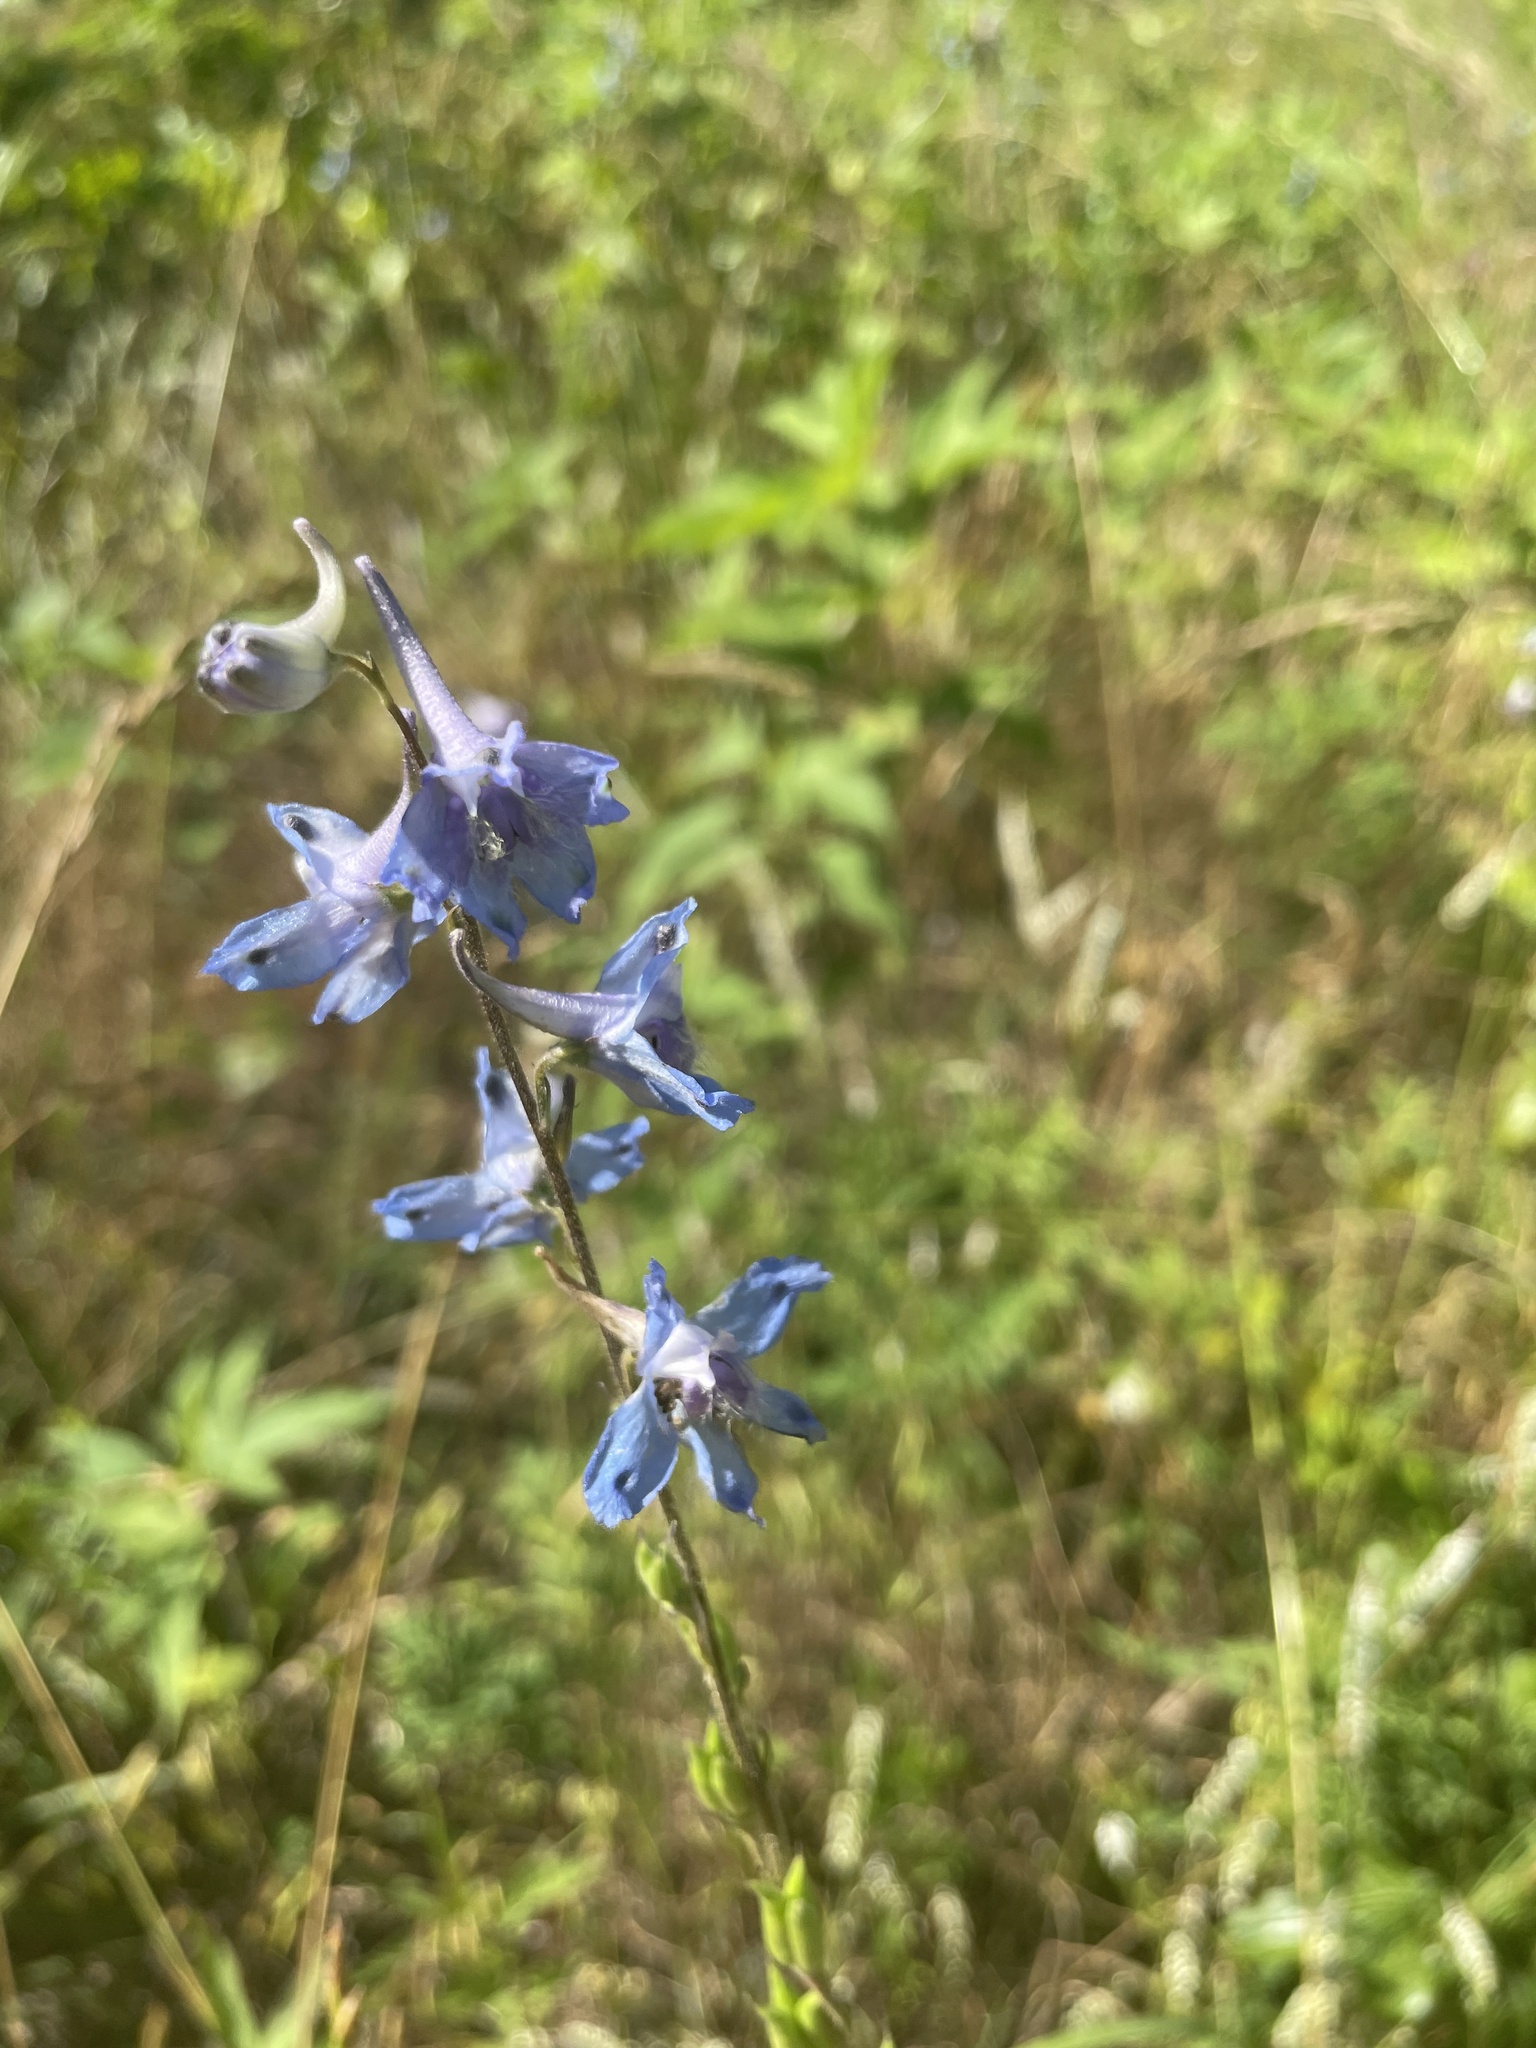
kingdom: Plantae
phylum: Tracheophyta
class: Magnoliopsida
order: Ranunculales
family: Ranunculaceae
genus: Delphinium
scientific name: Delphinium carolinianum
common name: Carolina larkspur
